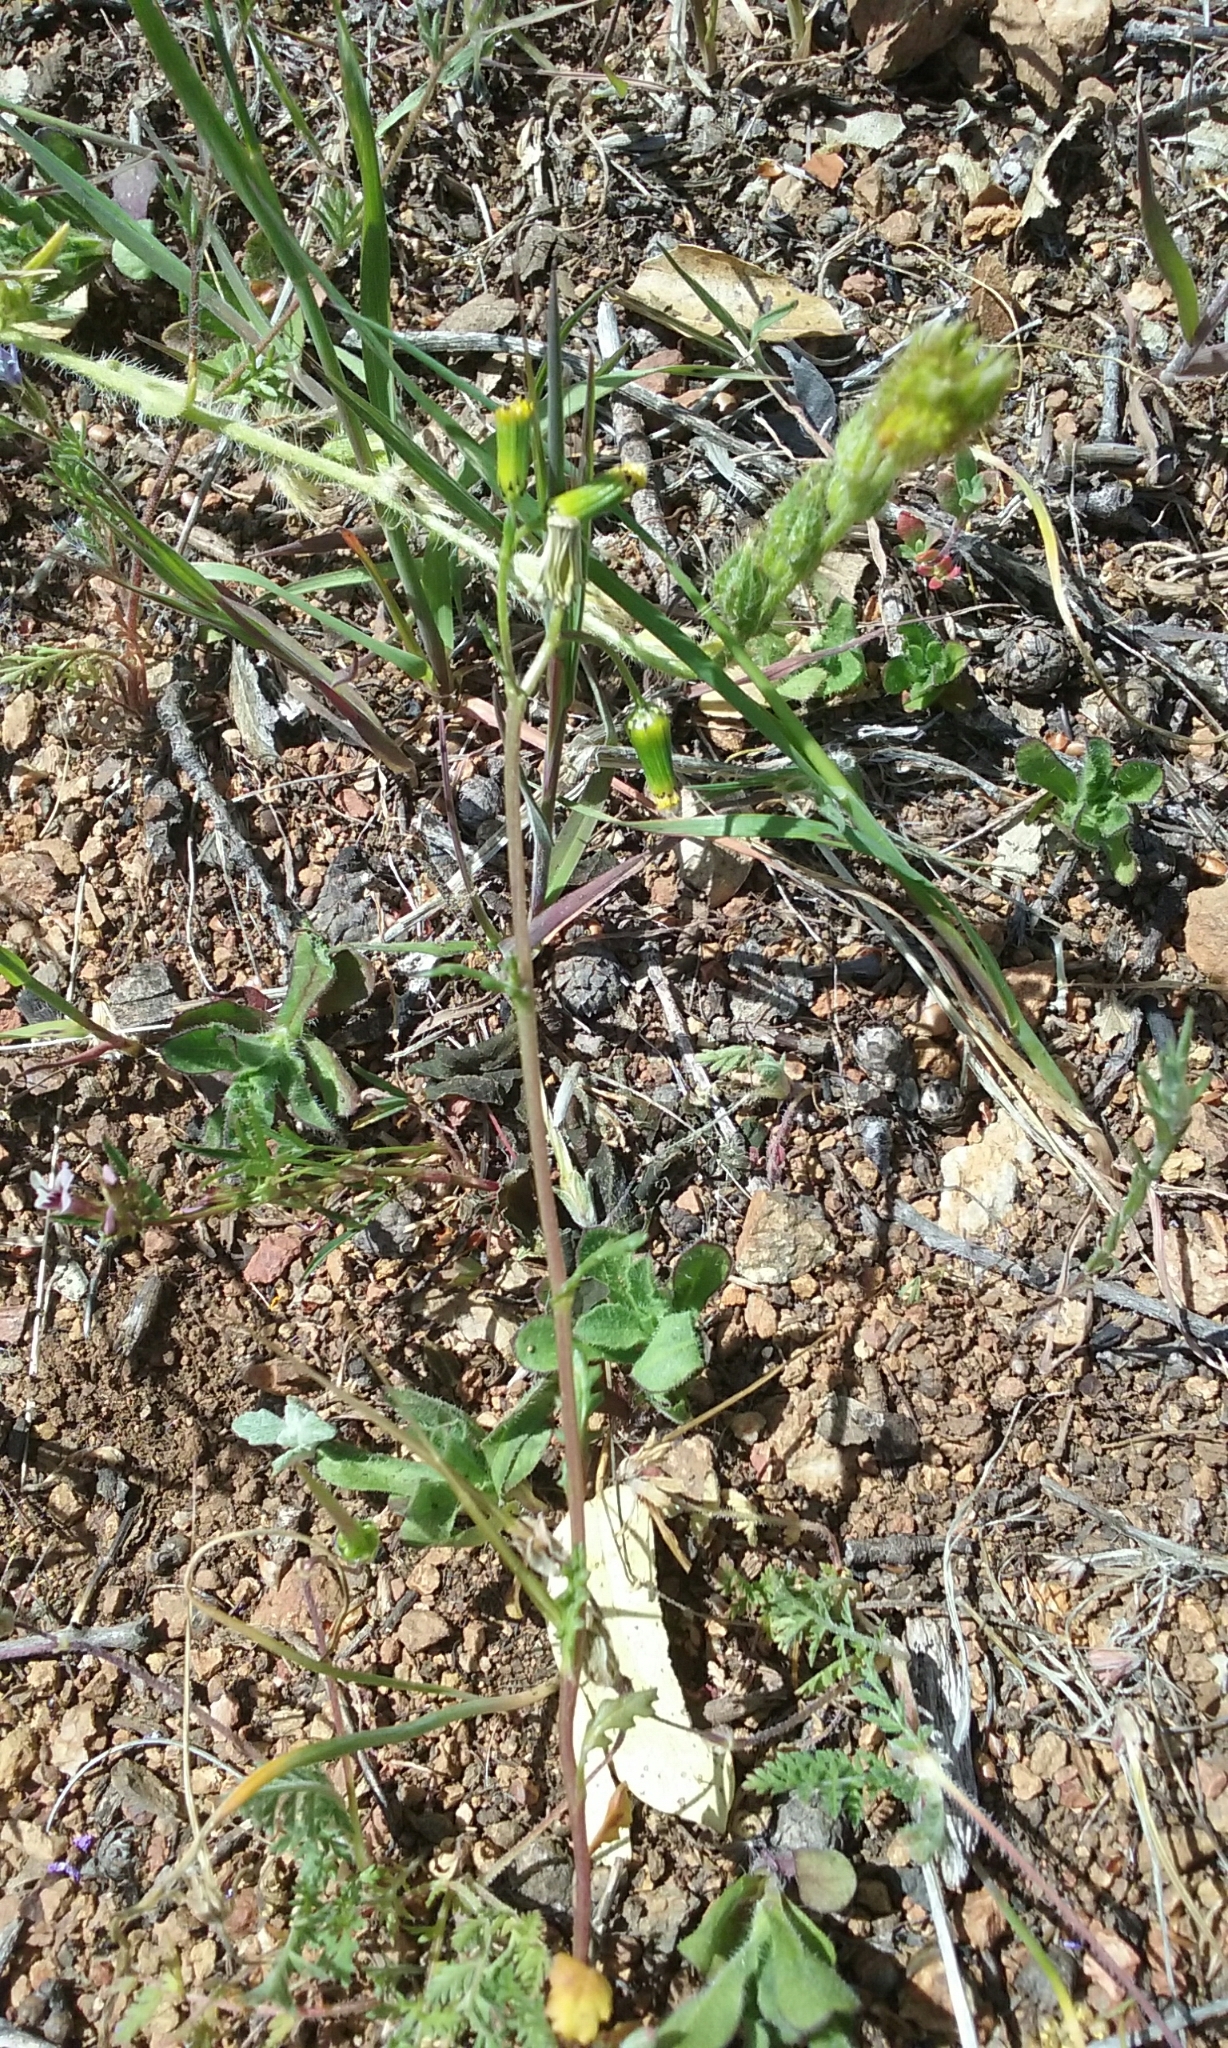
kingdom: Plantae
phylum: Tracheophyta
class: Magnoliopsida
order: Asterales
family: Asteraceae
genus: Senecio
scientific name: Senecio vulgaris
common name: Old-man-in-the-spring
